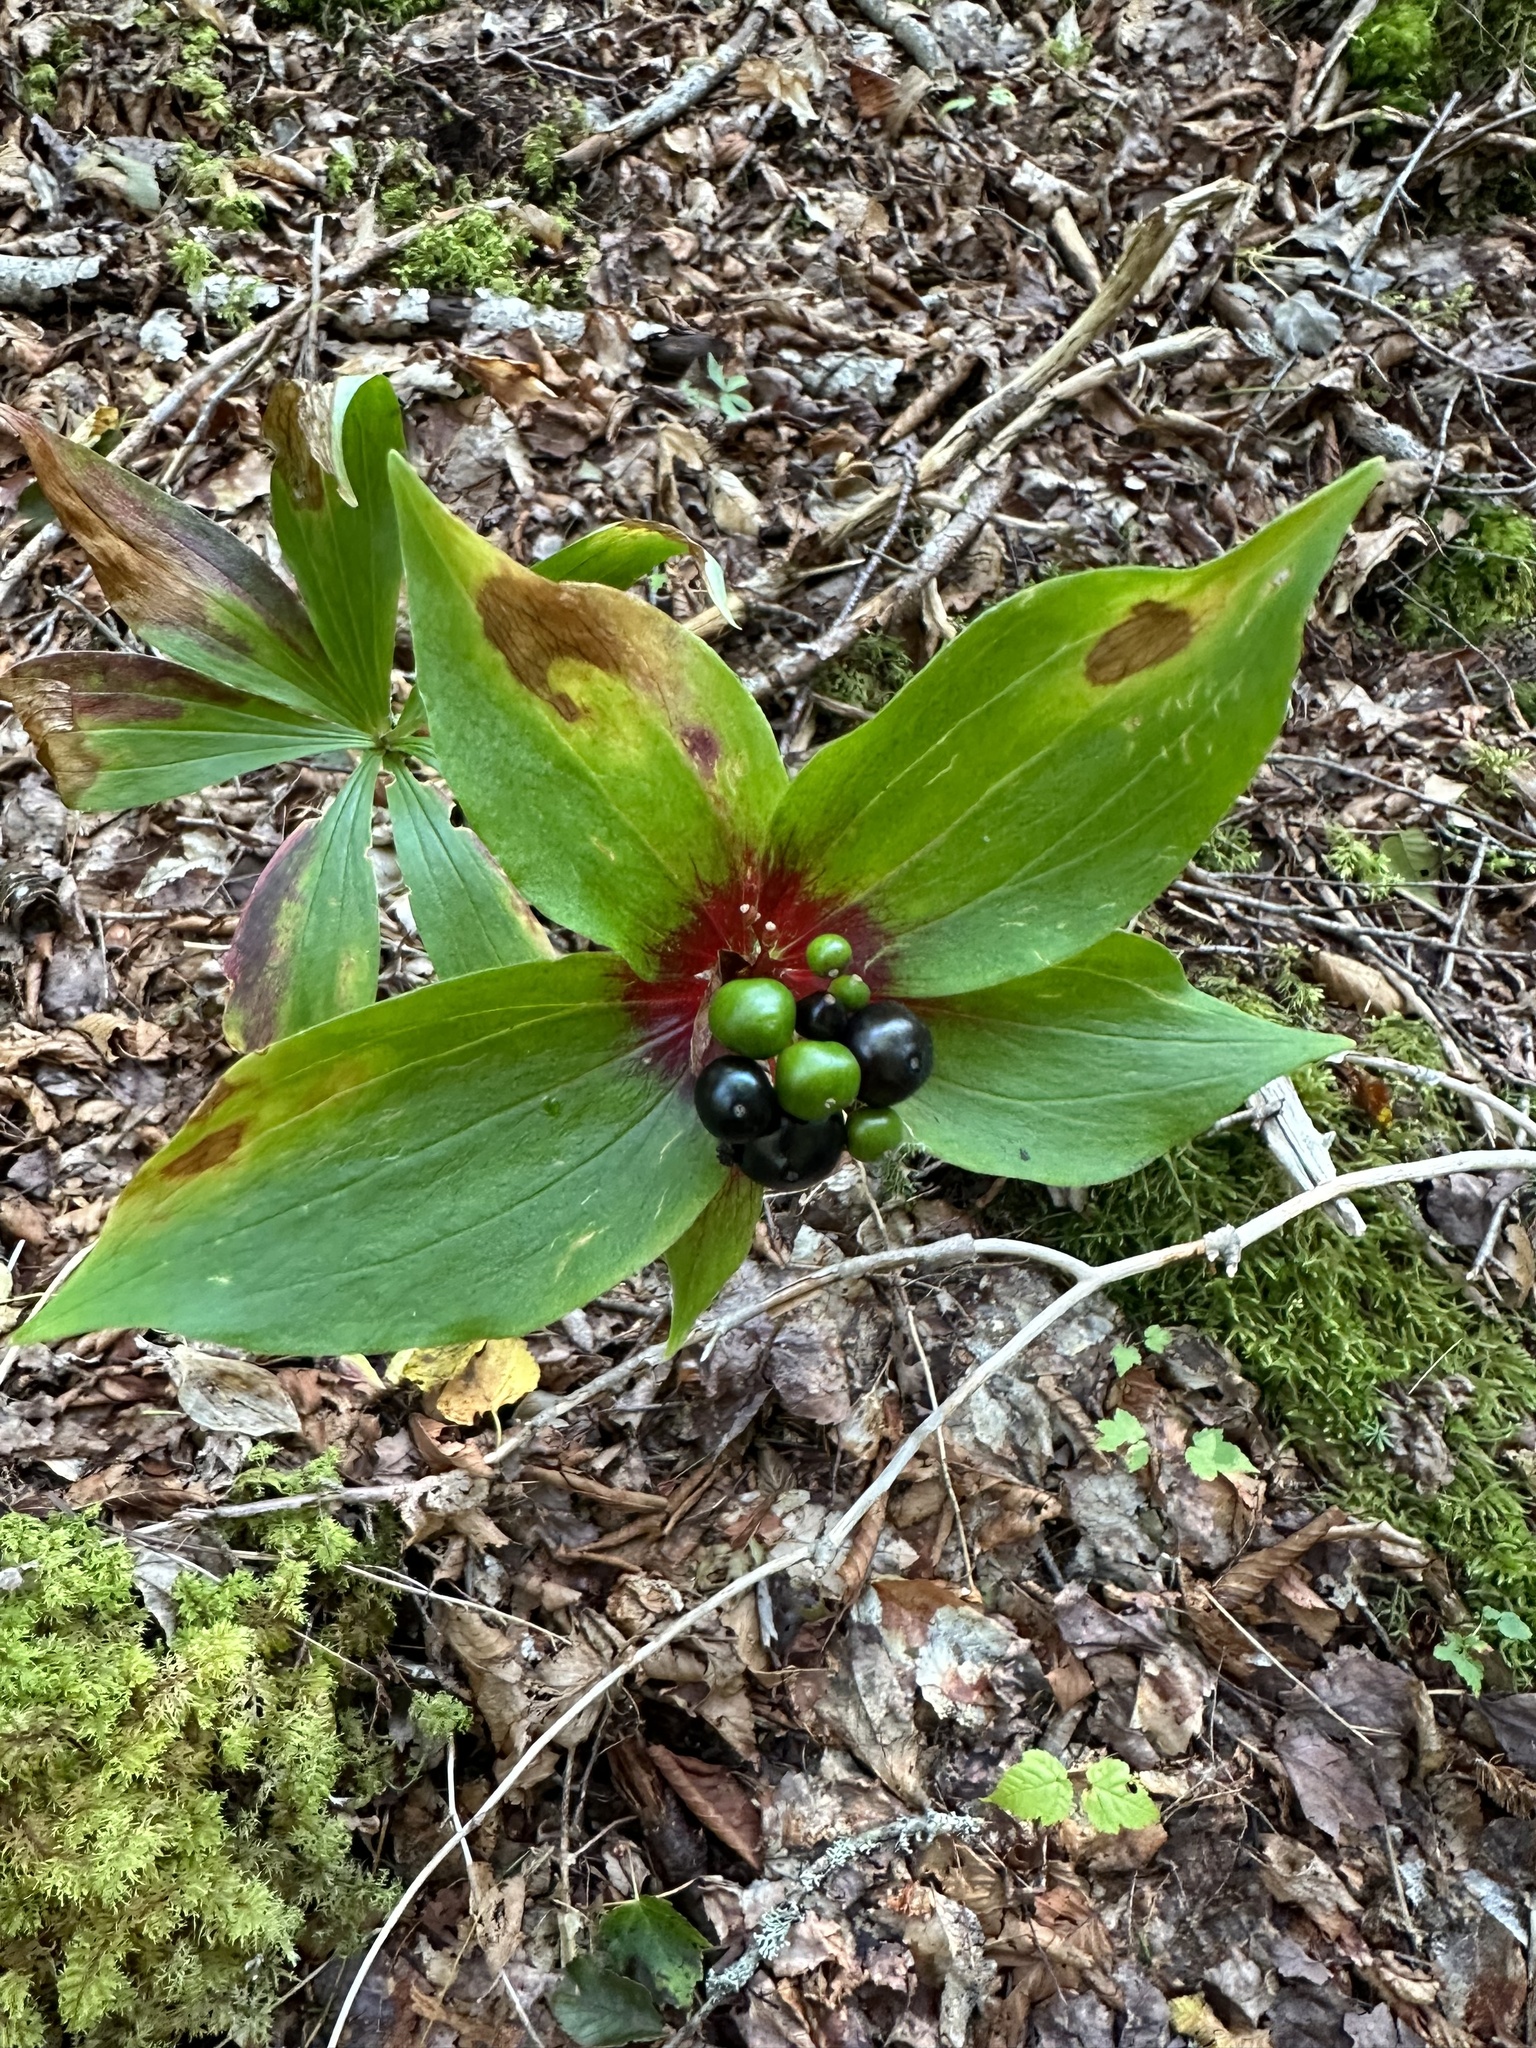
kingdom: Plantae
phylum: Tracheophyta
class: Liliopsida
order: Liliales
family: Liliaceae
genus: Medeola
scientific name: Medeola virginiana
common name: Indian cucumber-root
